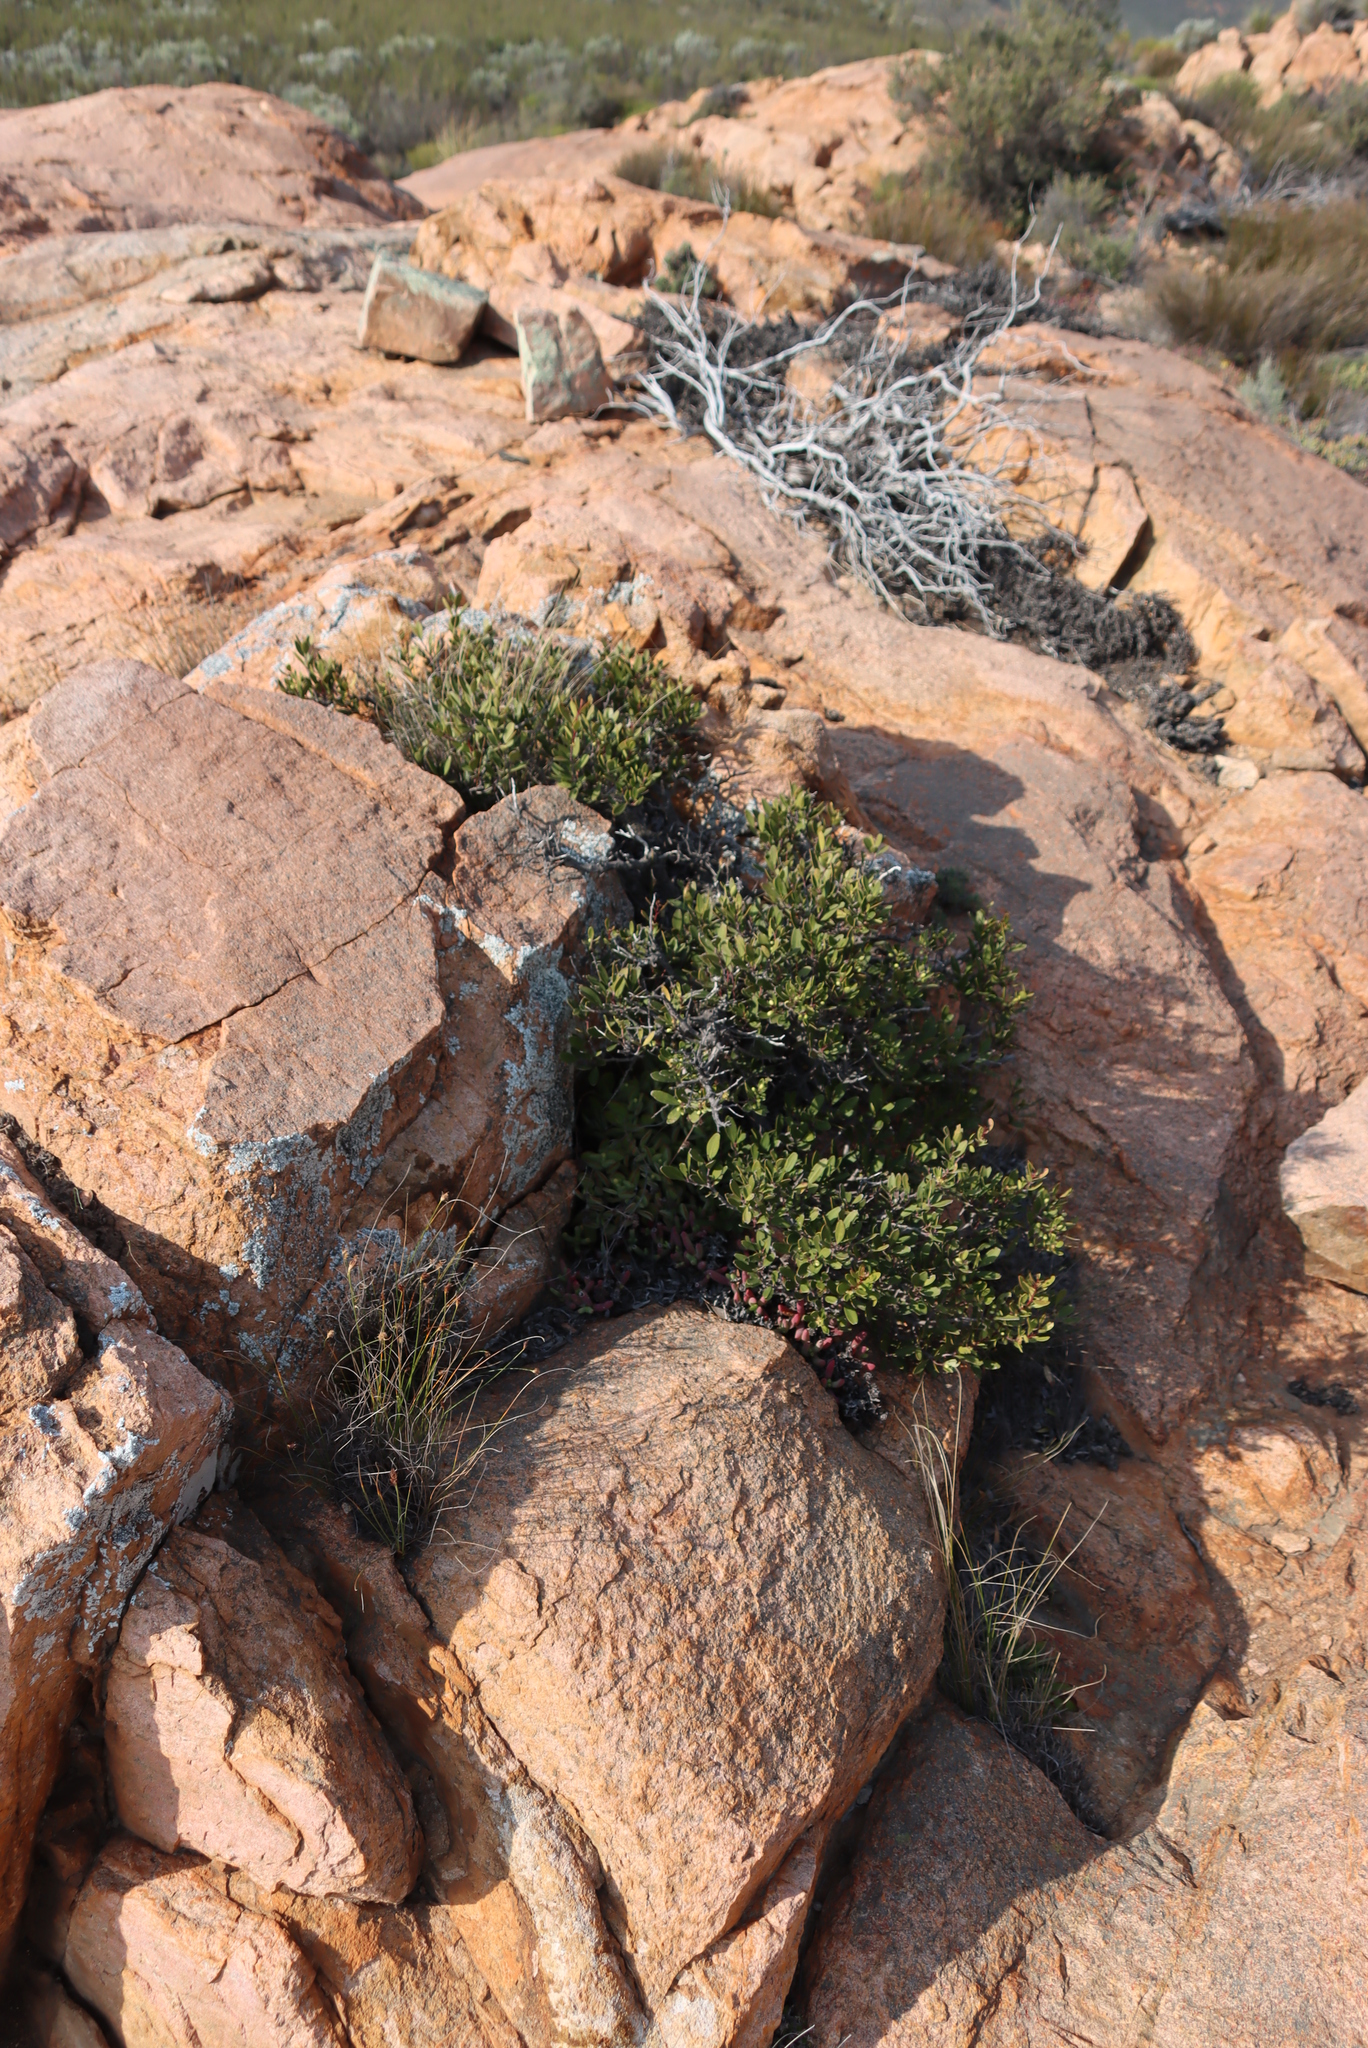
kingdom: Plantae
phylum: Tracheophyta
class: Magnoliopsida
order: Celastrales
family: Celastraceae
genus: Gymnosporia
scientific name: Gymnosporia laurina
